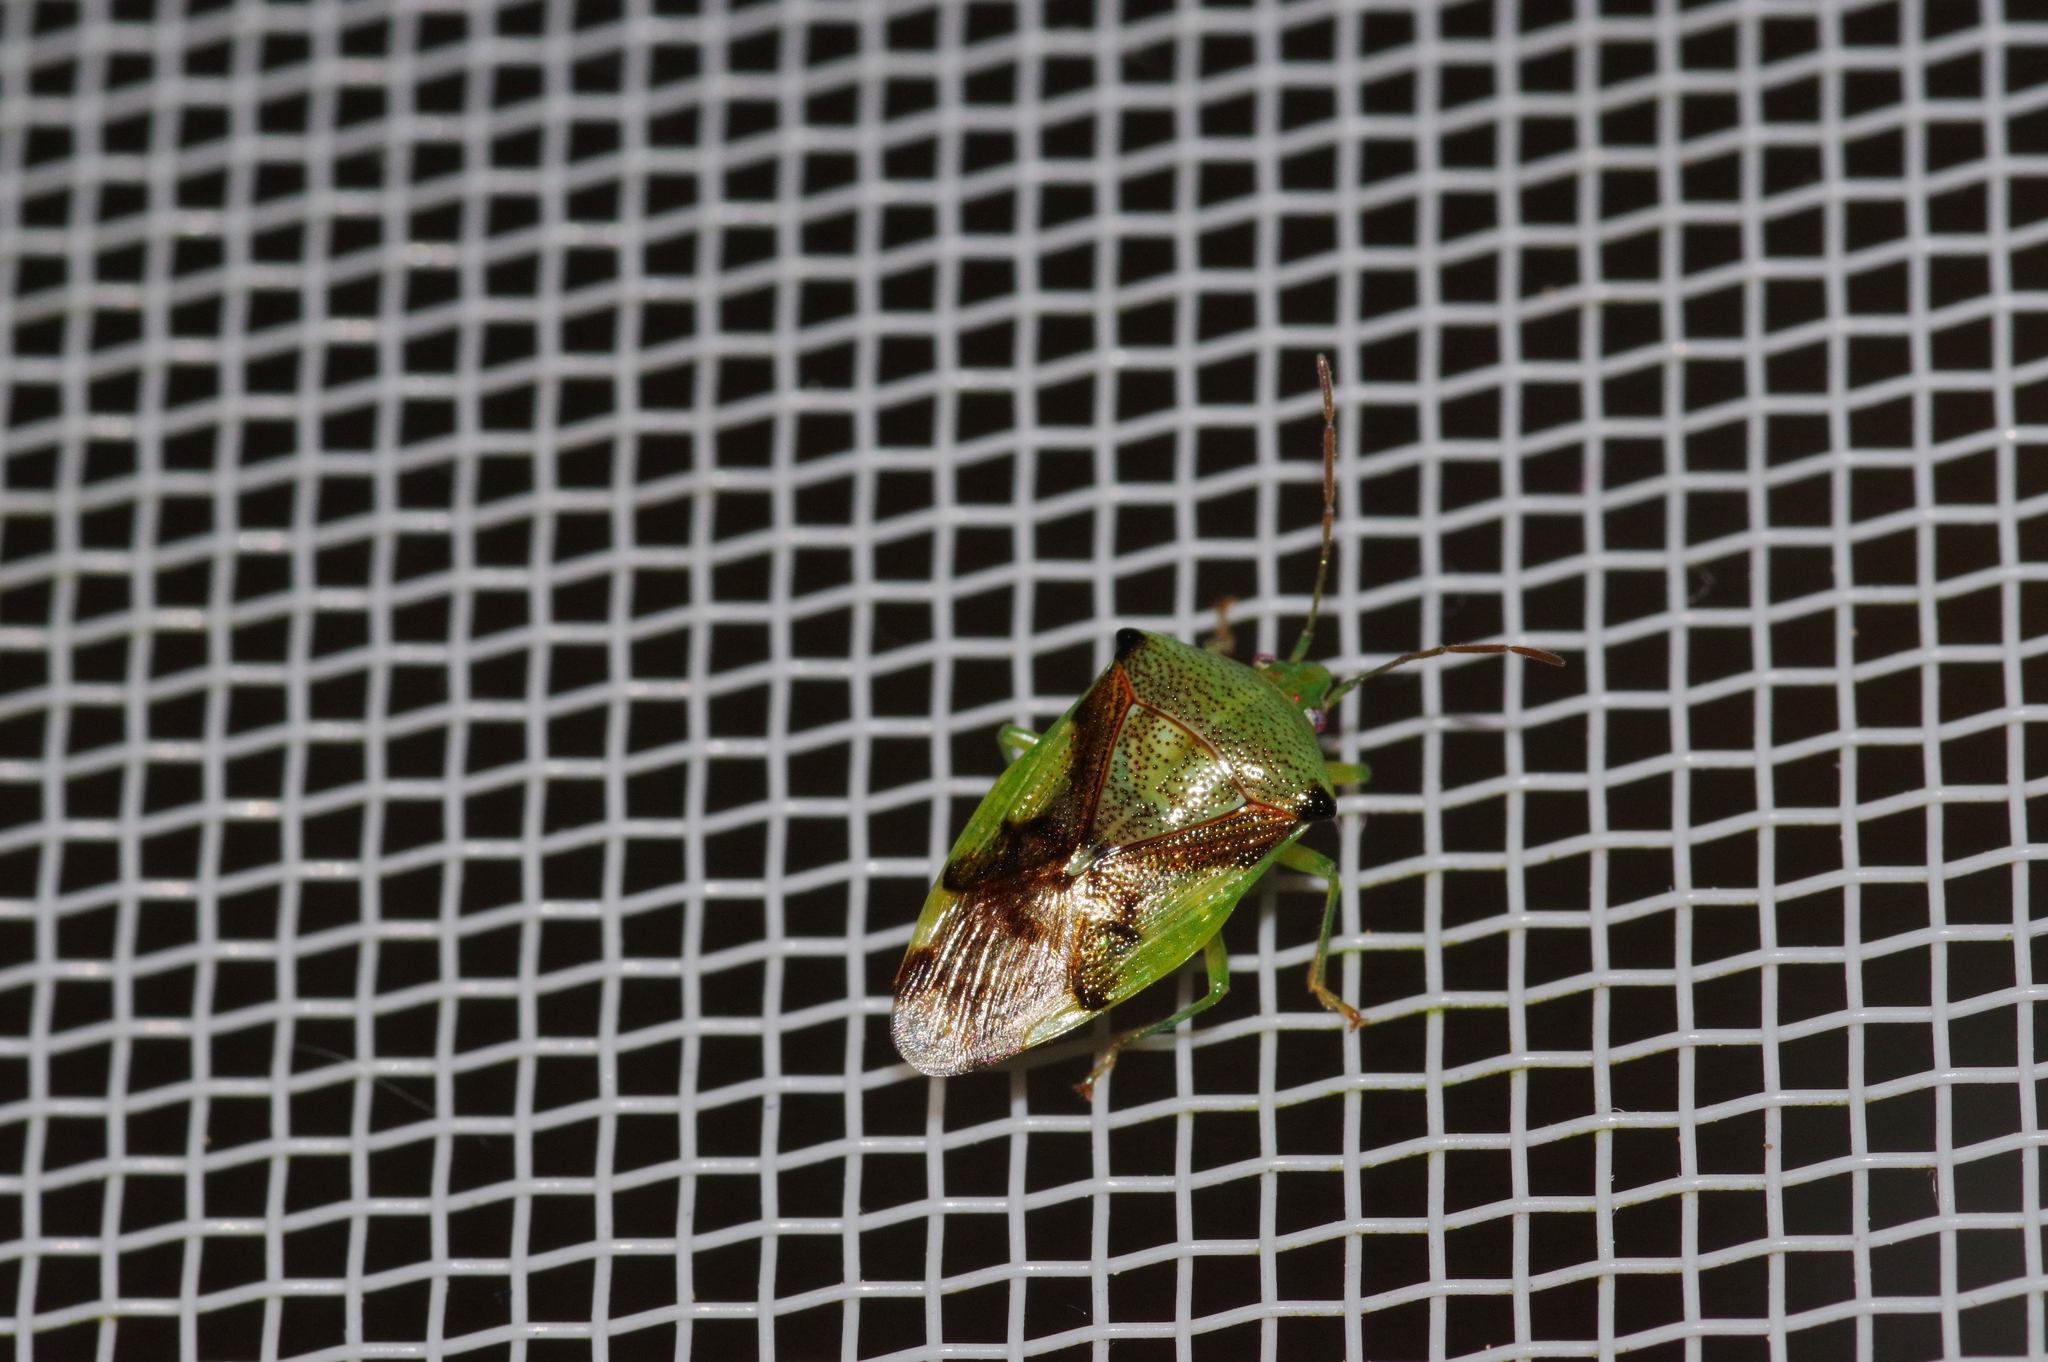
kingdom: Animalia
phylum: Arthropoda
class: Insecta
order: Hemiptera
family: Acanthosomatidae
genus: Elasmostethus
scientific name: Elasmostethus nubilus
